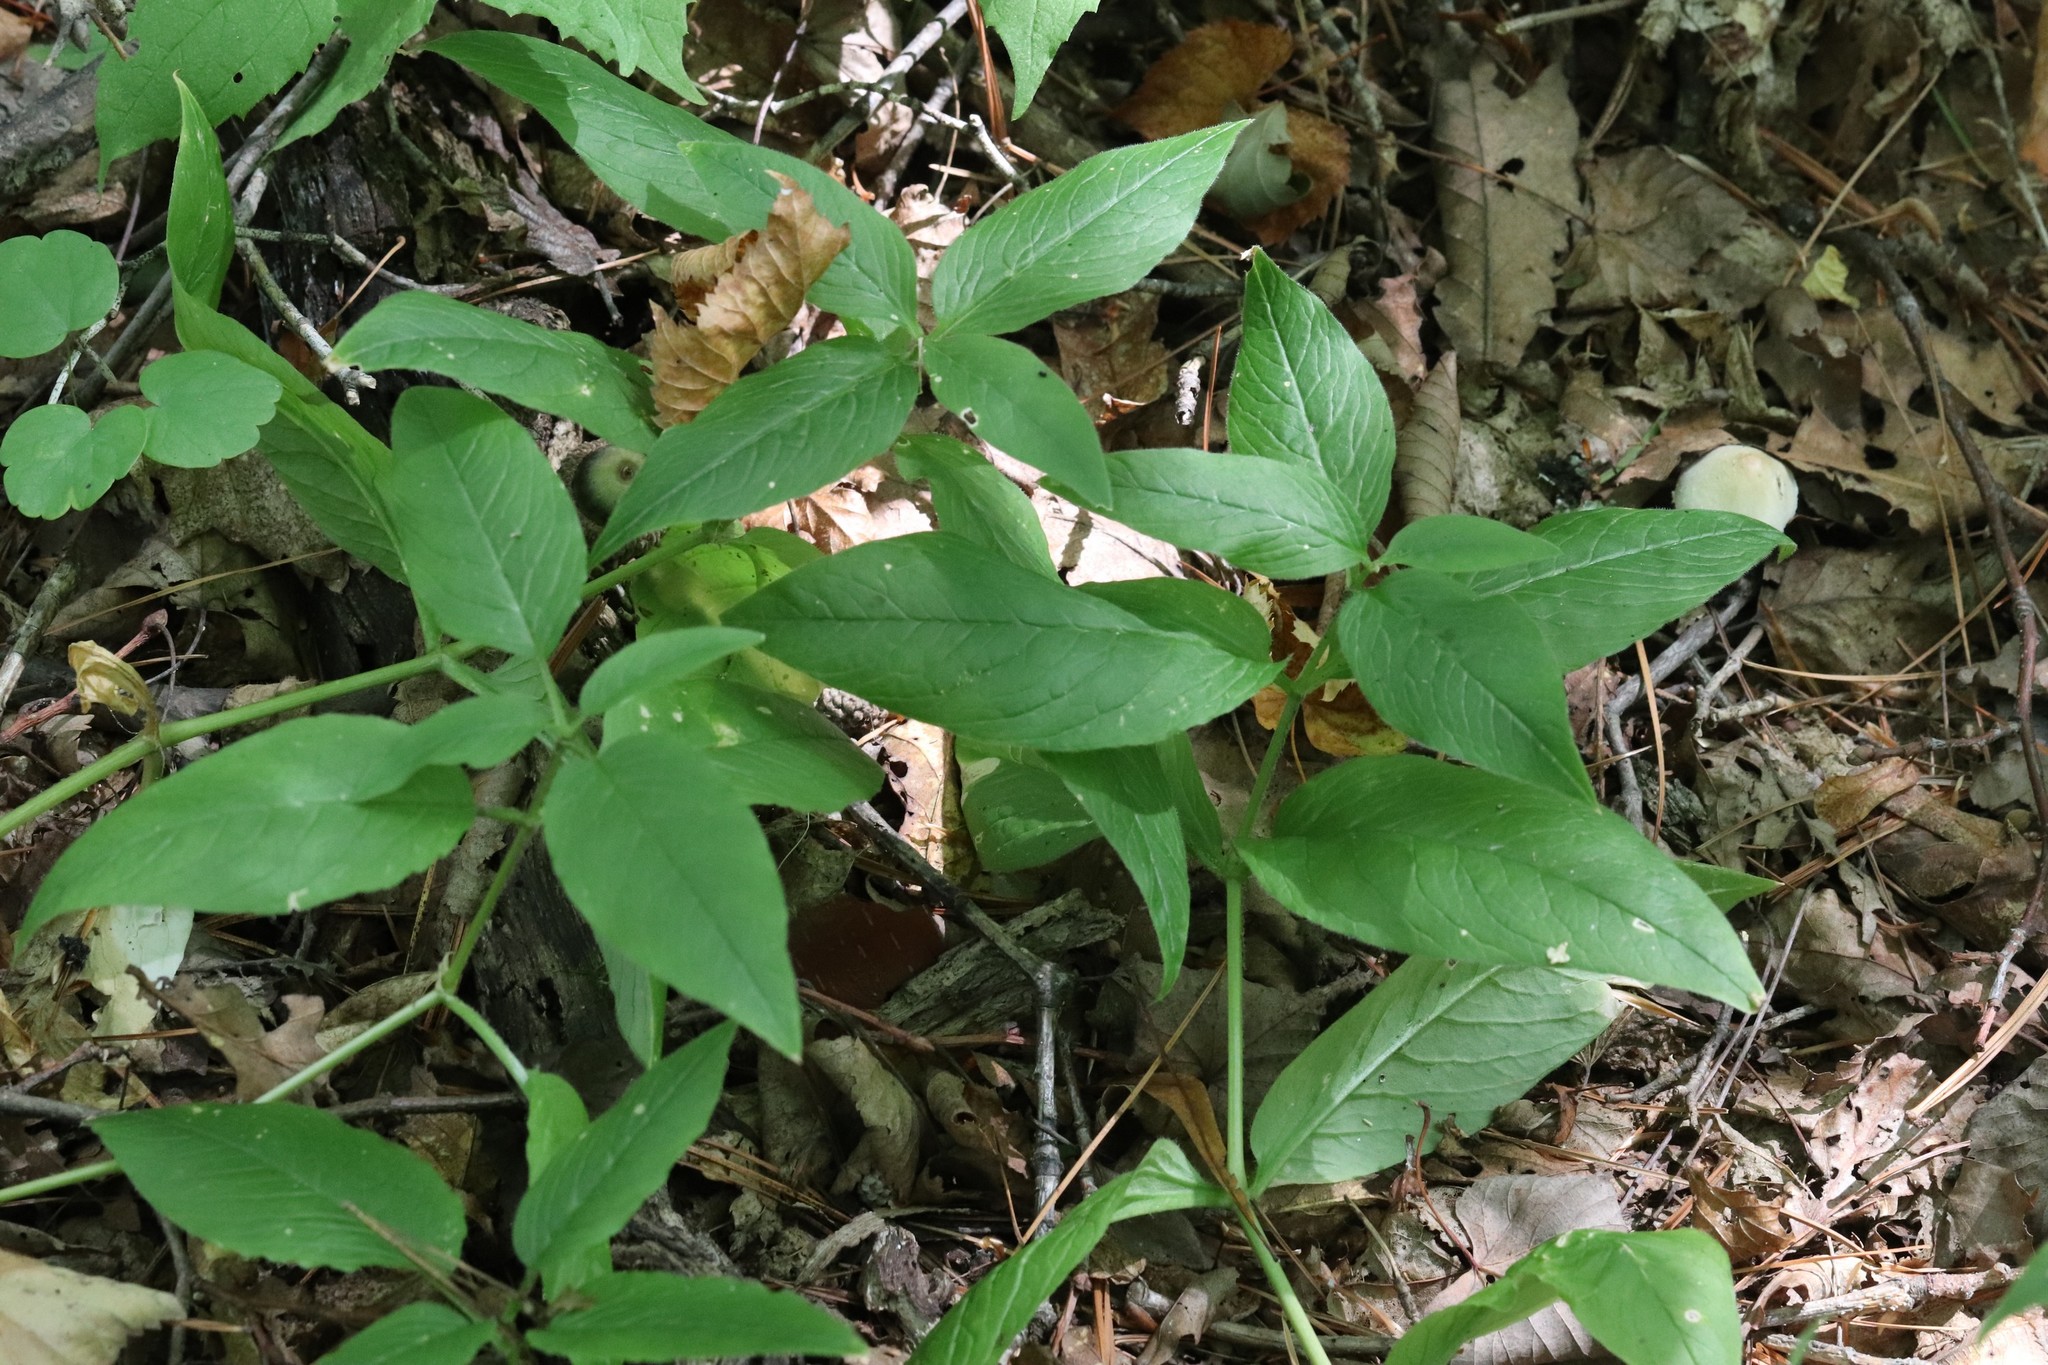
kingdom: Plantae
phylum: Tracheophyta
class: Magnoliopsida
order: Caryophyllales
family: Caryophyllaceae
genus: Stellaria
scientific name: Stellaria bungeana
